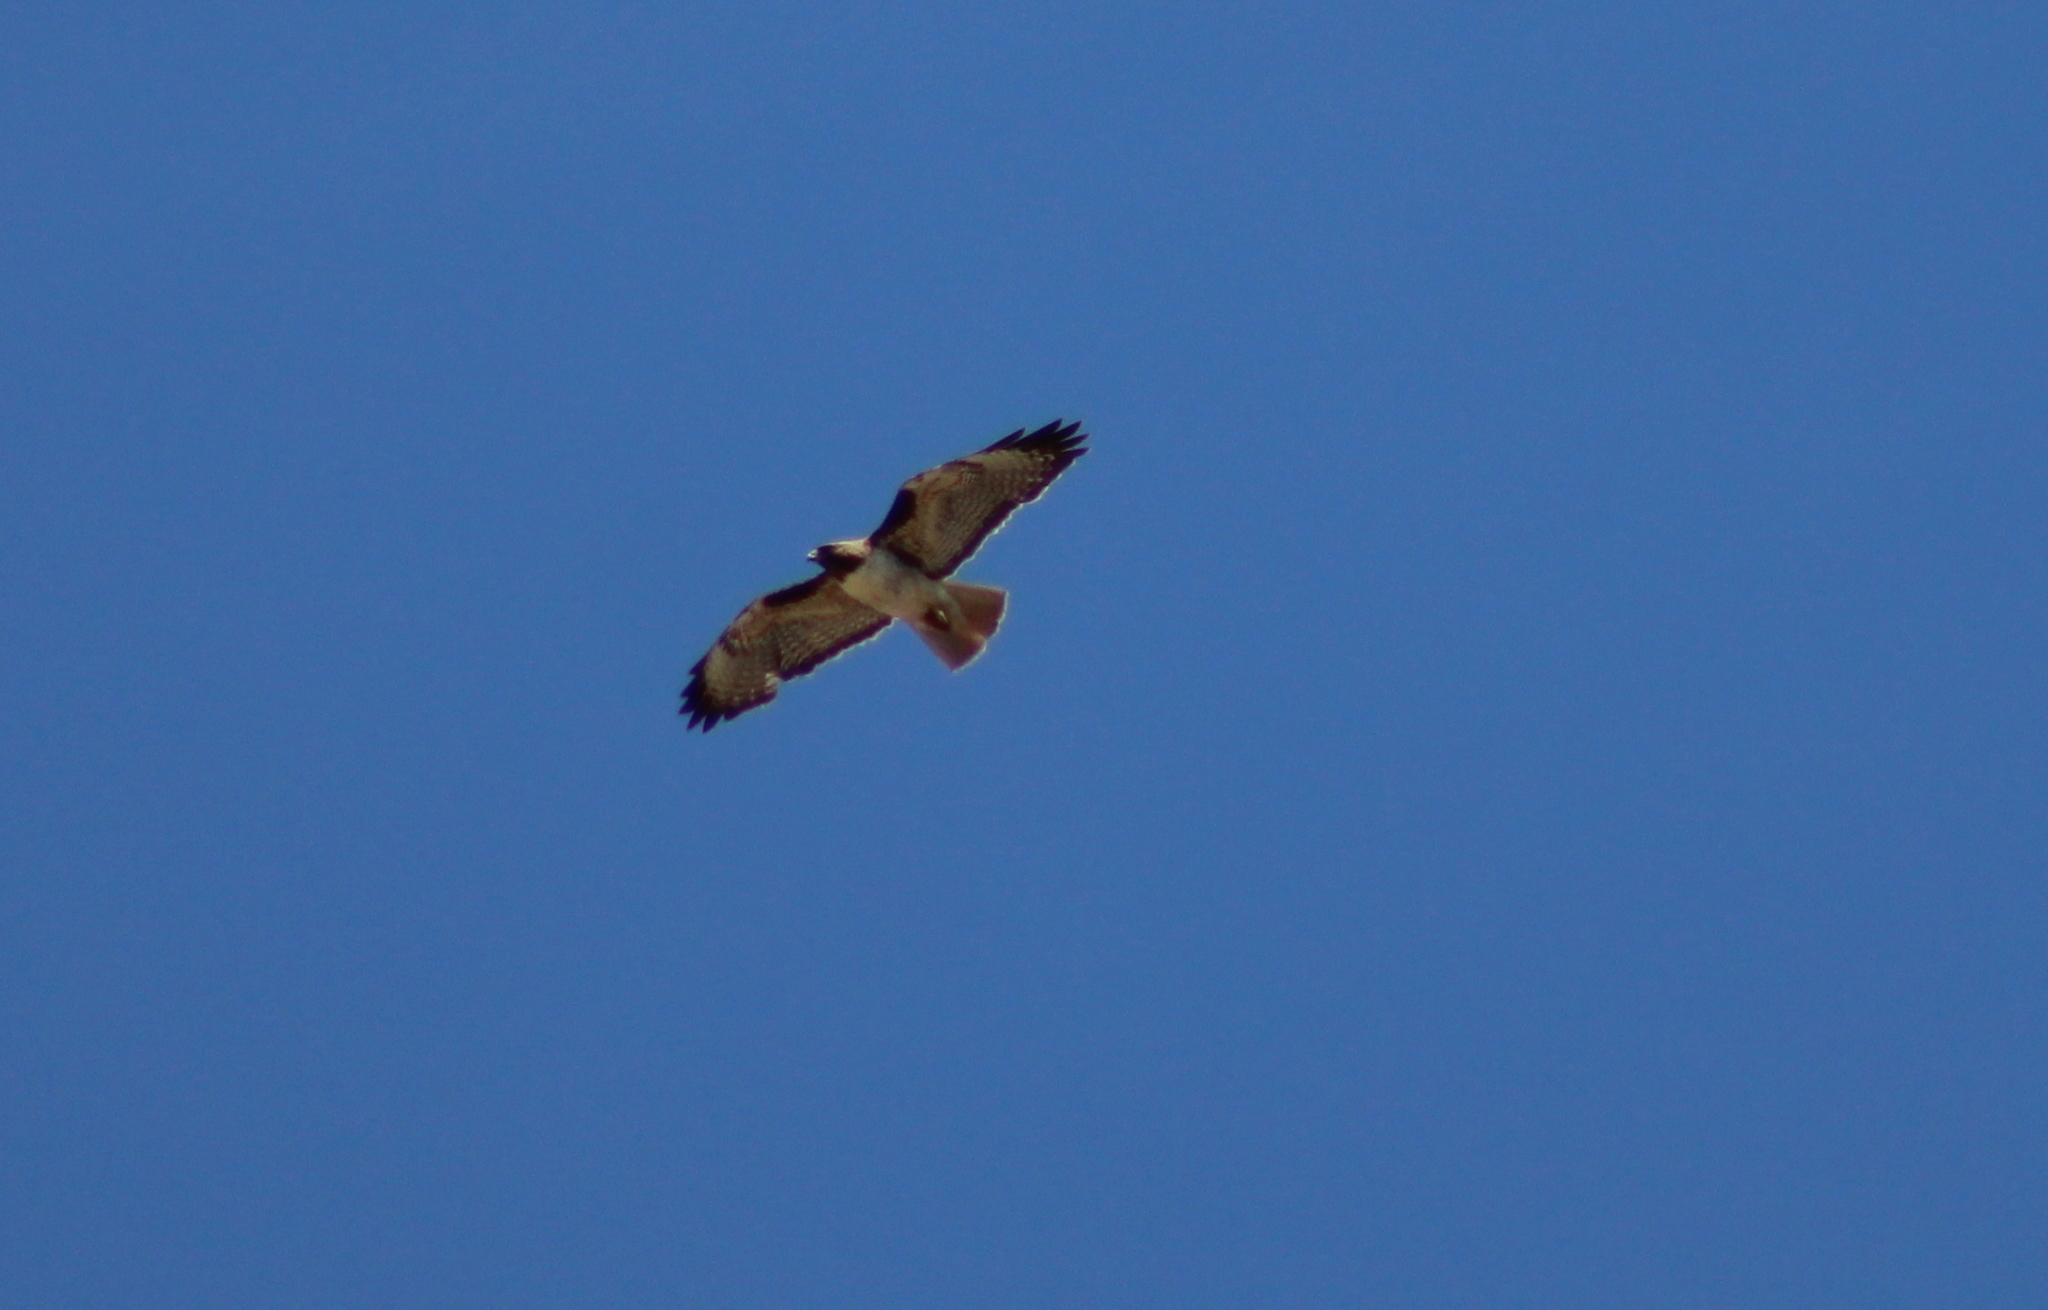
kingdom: Animalia
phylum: Chordata
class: Aves
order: Accipitriformes
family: Accipitridae
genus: Buteo
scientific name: Buteo jamaicensis
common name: Red-tailed hawk
